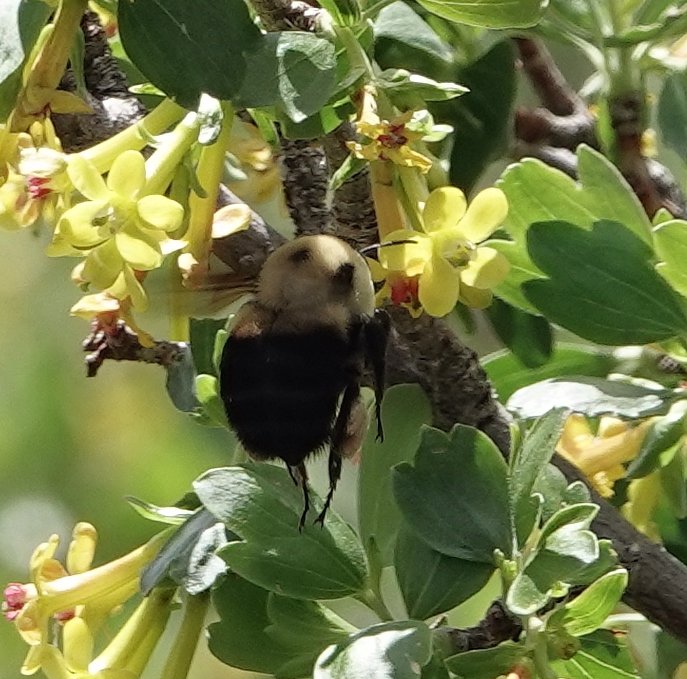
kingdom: Animalia
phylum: Arthropoda
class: Insecta
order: Hymenoptera
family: Apidae
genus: Bombus
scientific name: Bombus griseocollis
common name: Brown-belted bumble bee
